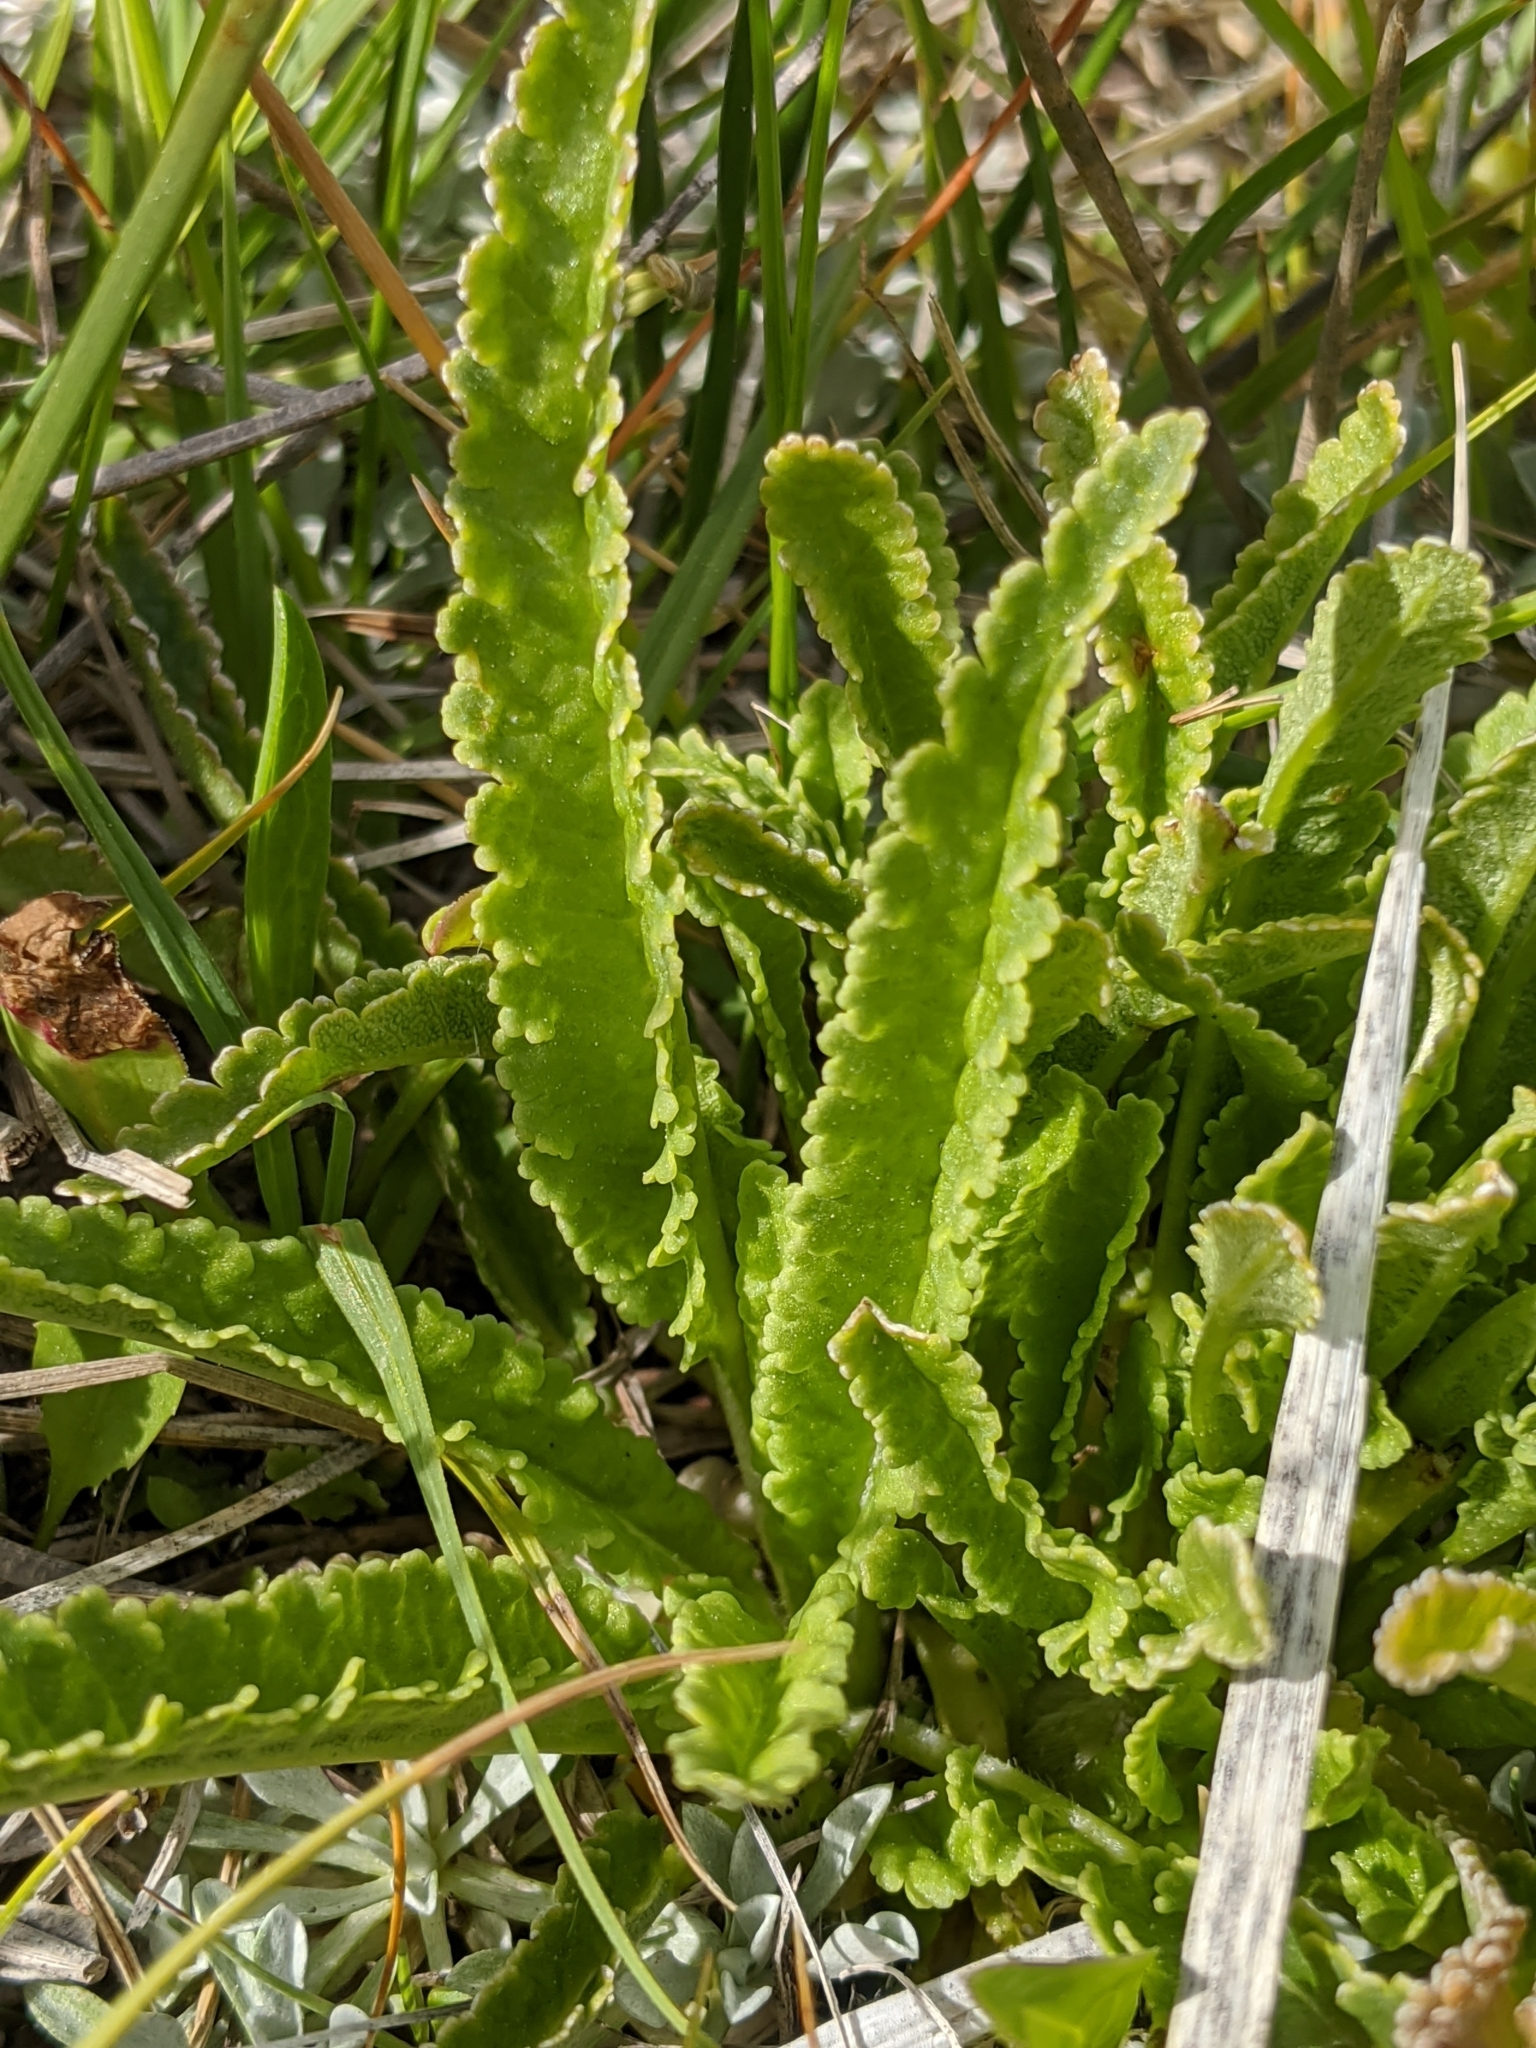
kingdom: Plantae
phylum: Tracheophyta
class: Magnoliopsida
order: Lamiales
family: Orobanchaceae
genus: Pedicularis
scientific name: Pedicularis crenulata
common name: Meadow lousewort
